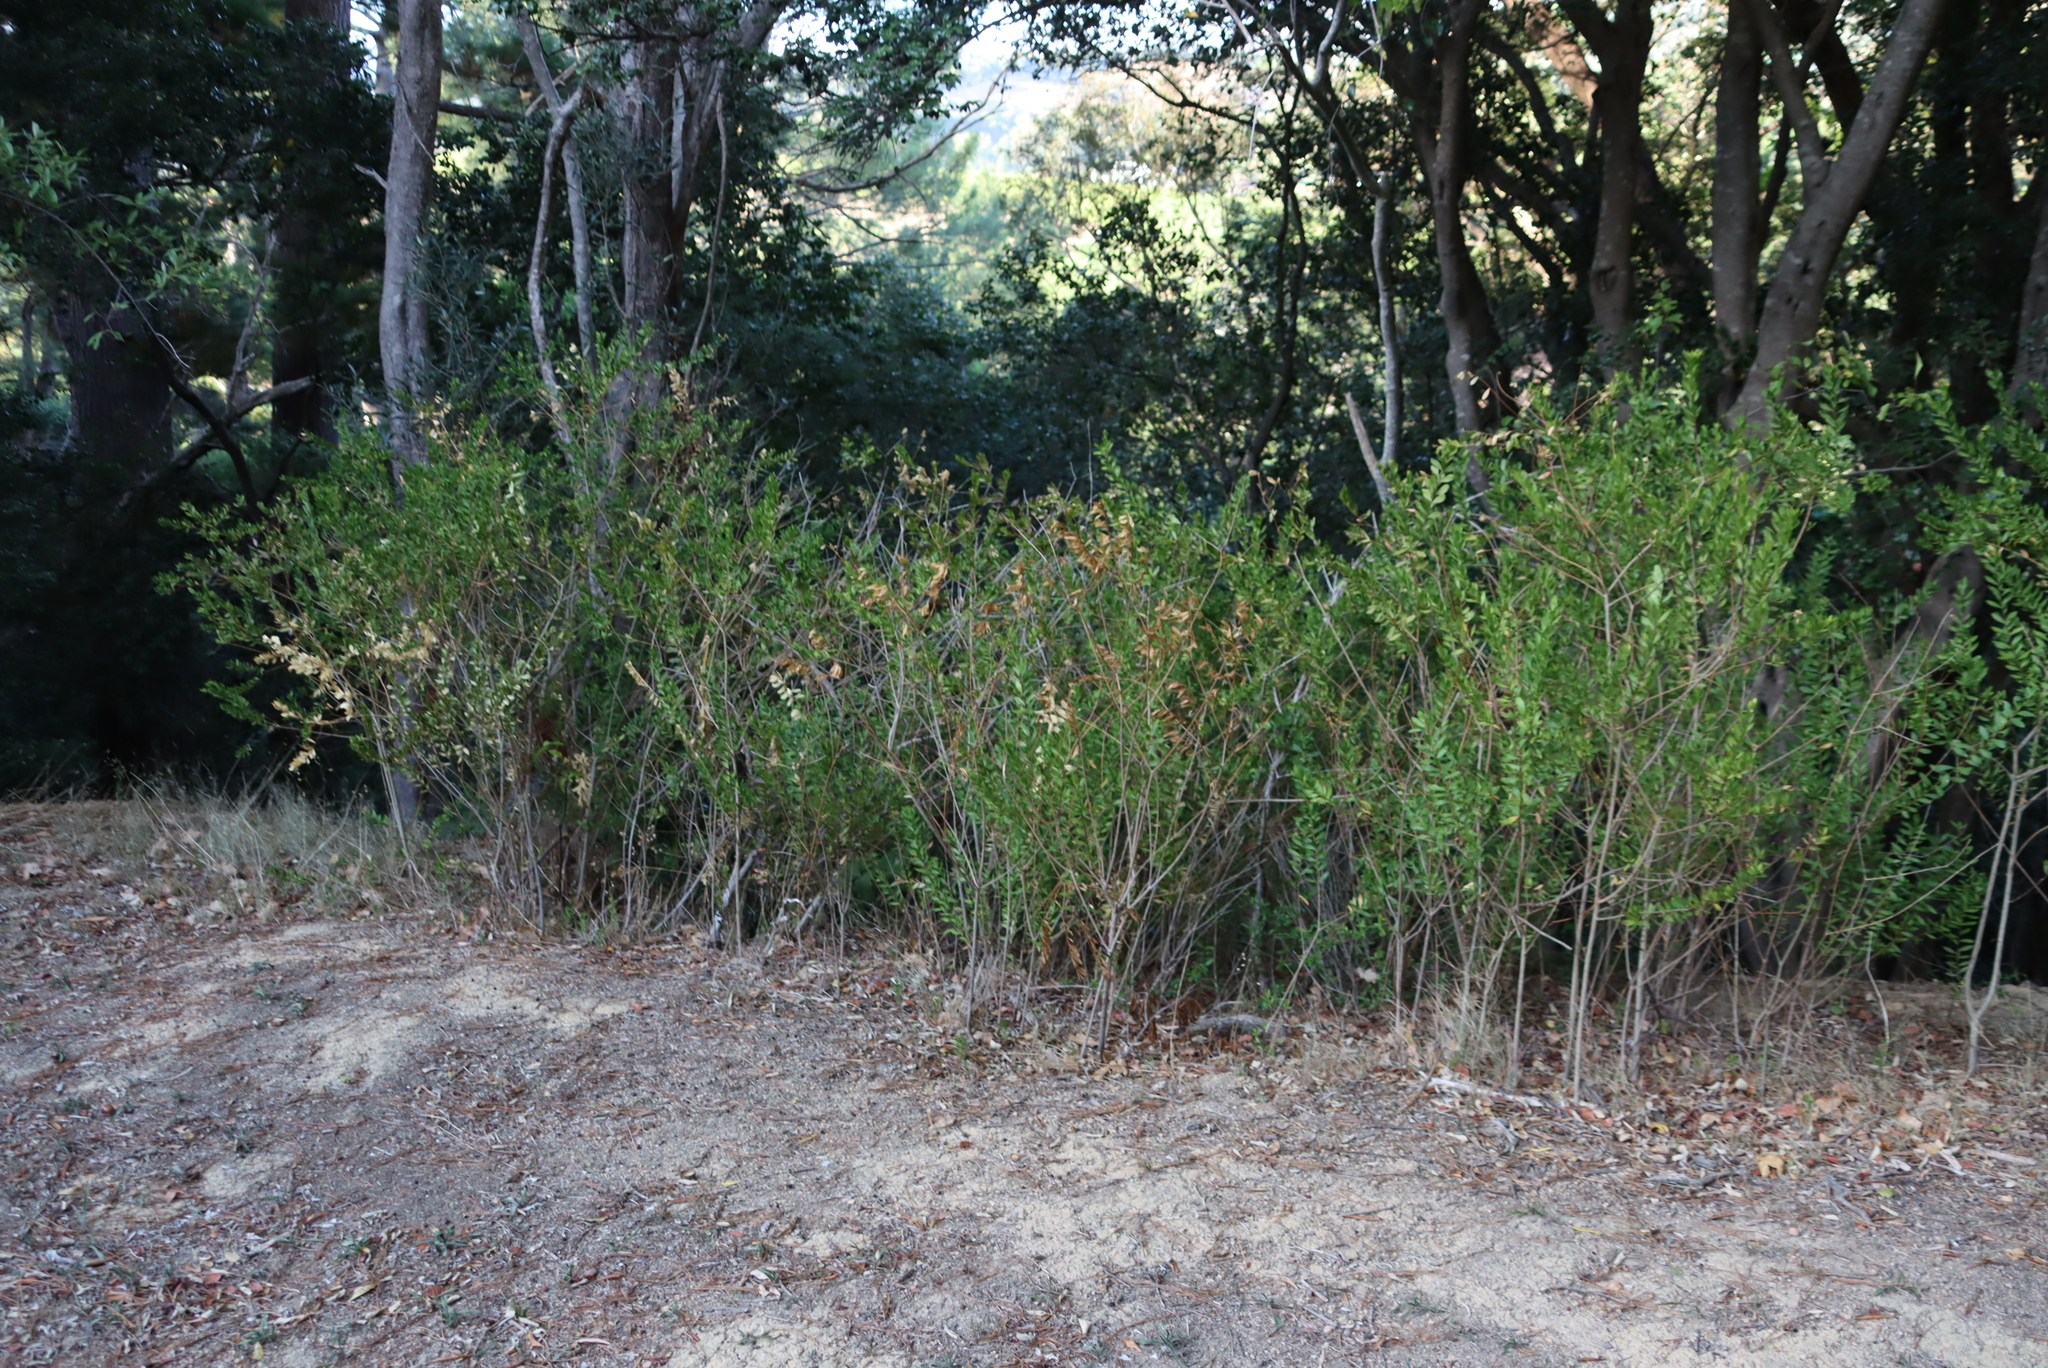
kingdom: Plantae
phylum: Tracheophyta
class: Magnoliopsida
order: Fabales
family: Polygalaceae
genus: Polygala
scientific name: Polygala myrtifolia
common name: Myrtle-leaf milkwort
